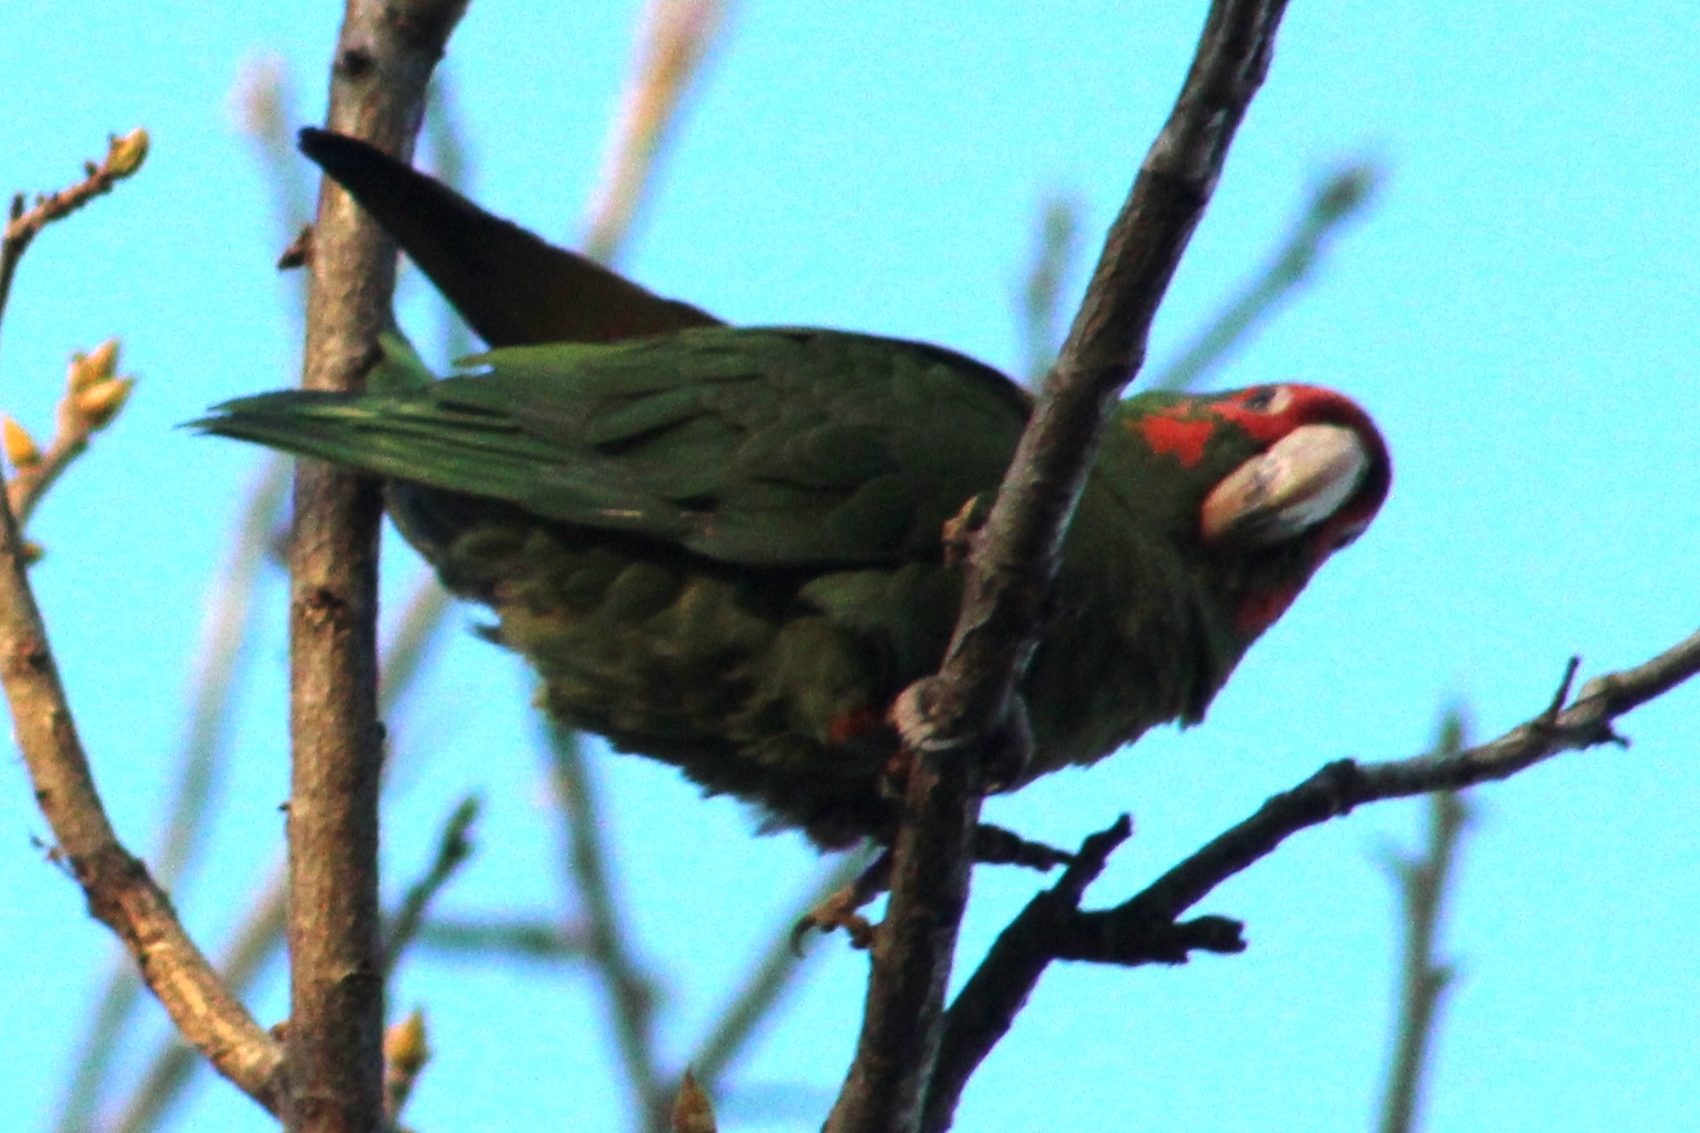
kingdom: Animalia
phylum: Chordata
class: Aves
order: Psittaciformes
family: Psittacidae
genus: Aratinga
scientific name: Aratinga mitrata
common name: Mitred parakeet
